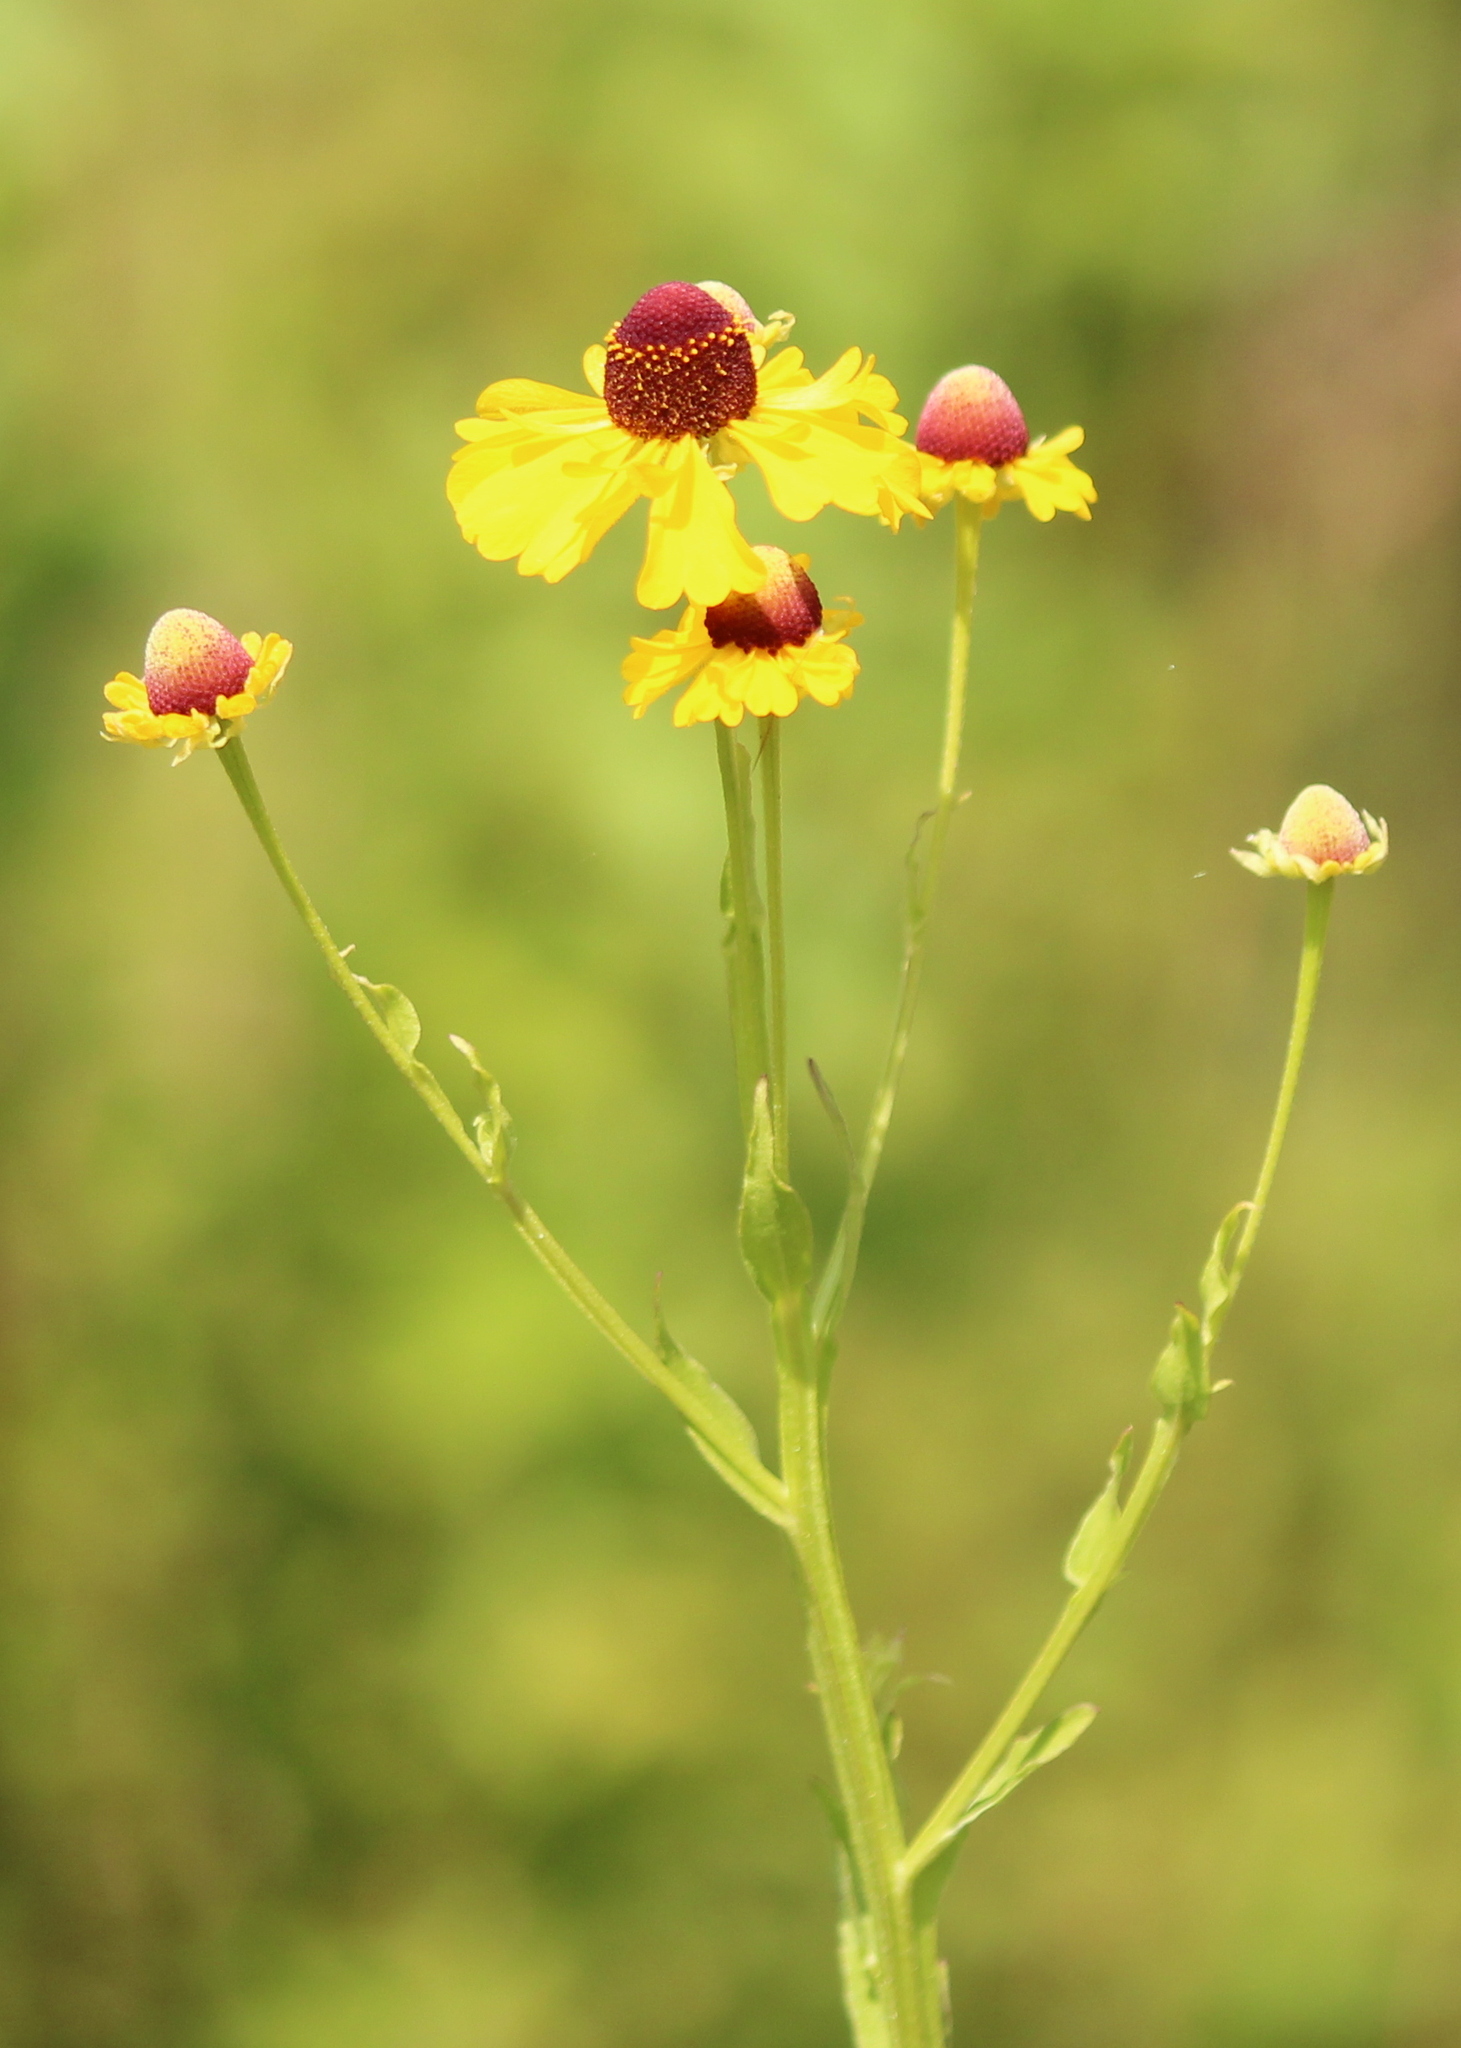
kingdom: Plantae
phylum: Tracheophyta
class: Magnoliopsida
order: Asterales
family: Asteraceae
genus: Helenium
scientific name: Helenium flexuosum
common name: Naked-flowered sneezeweed
